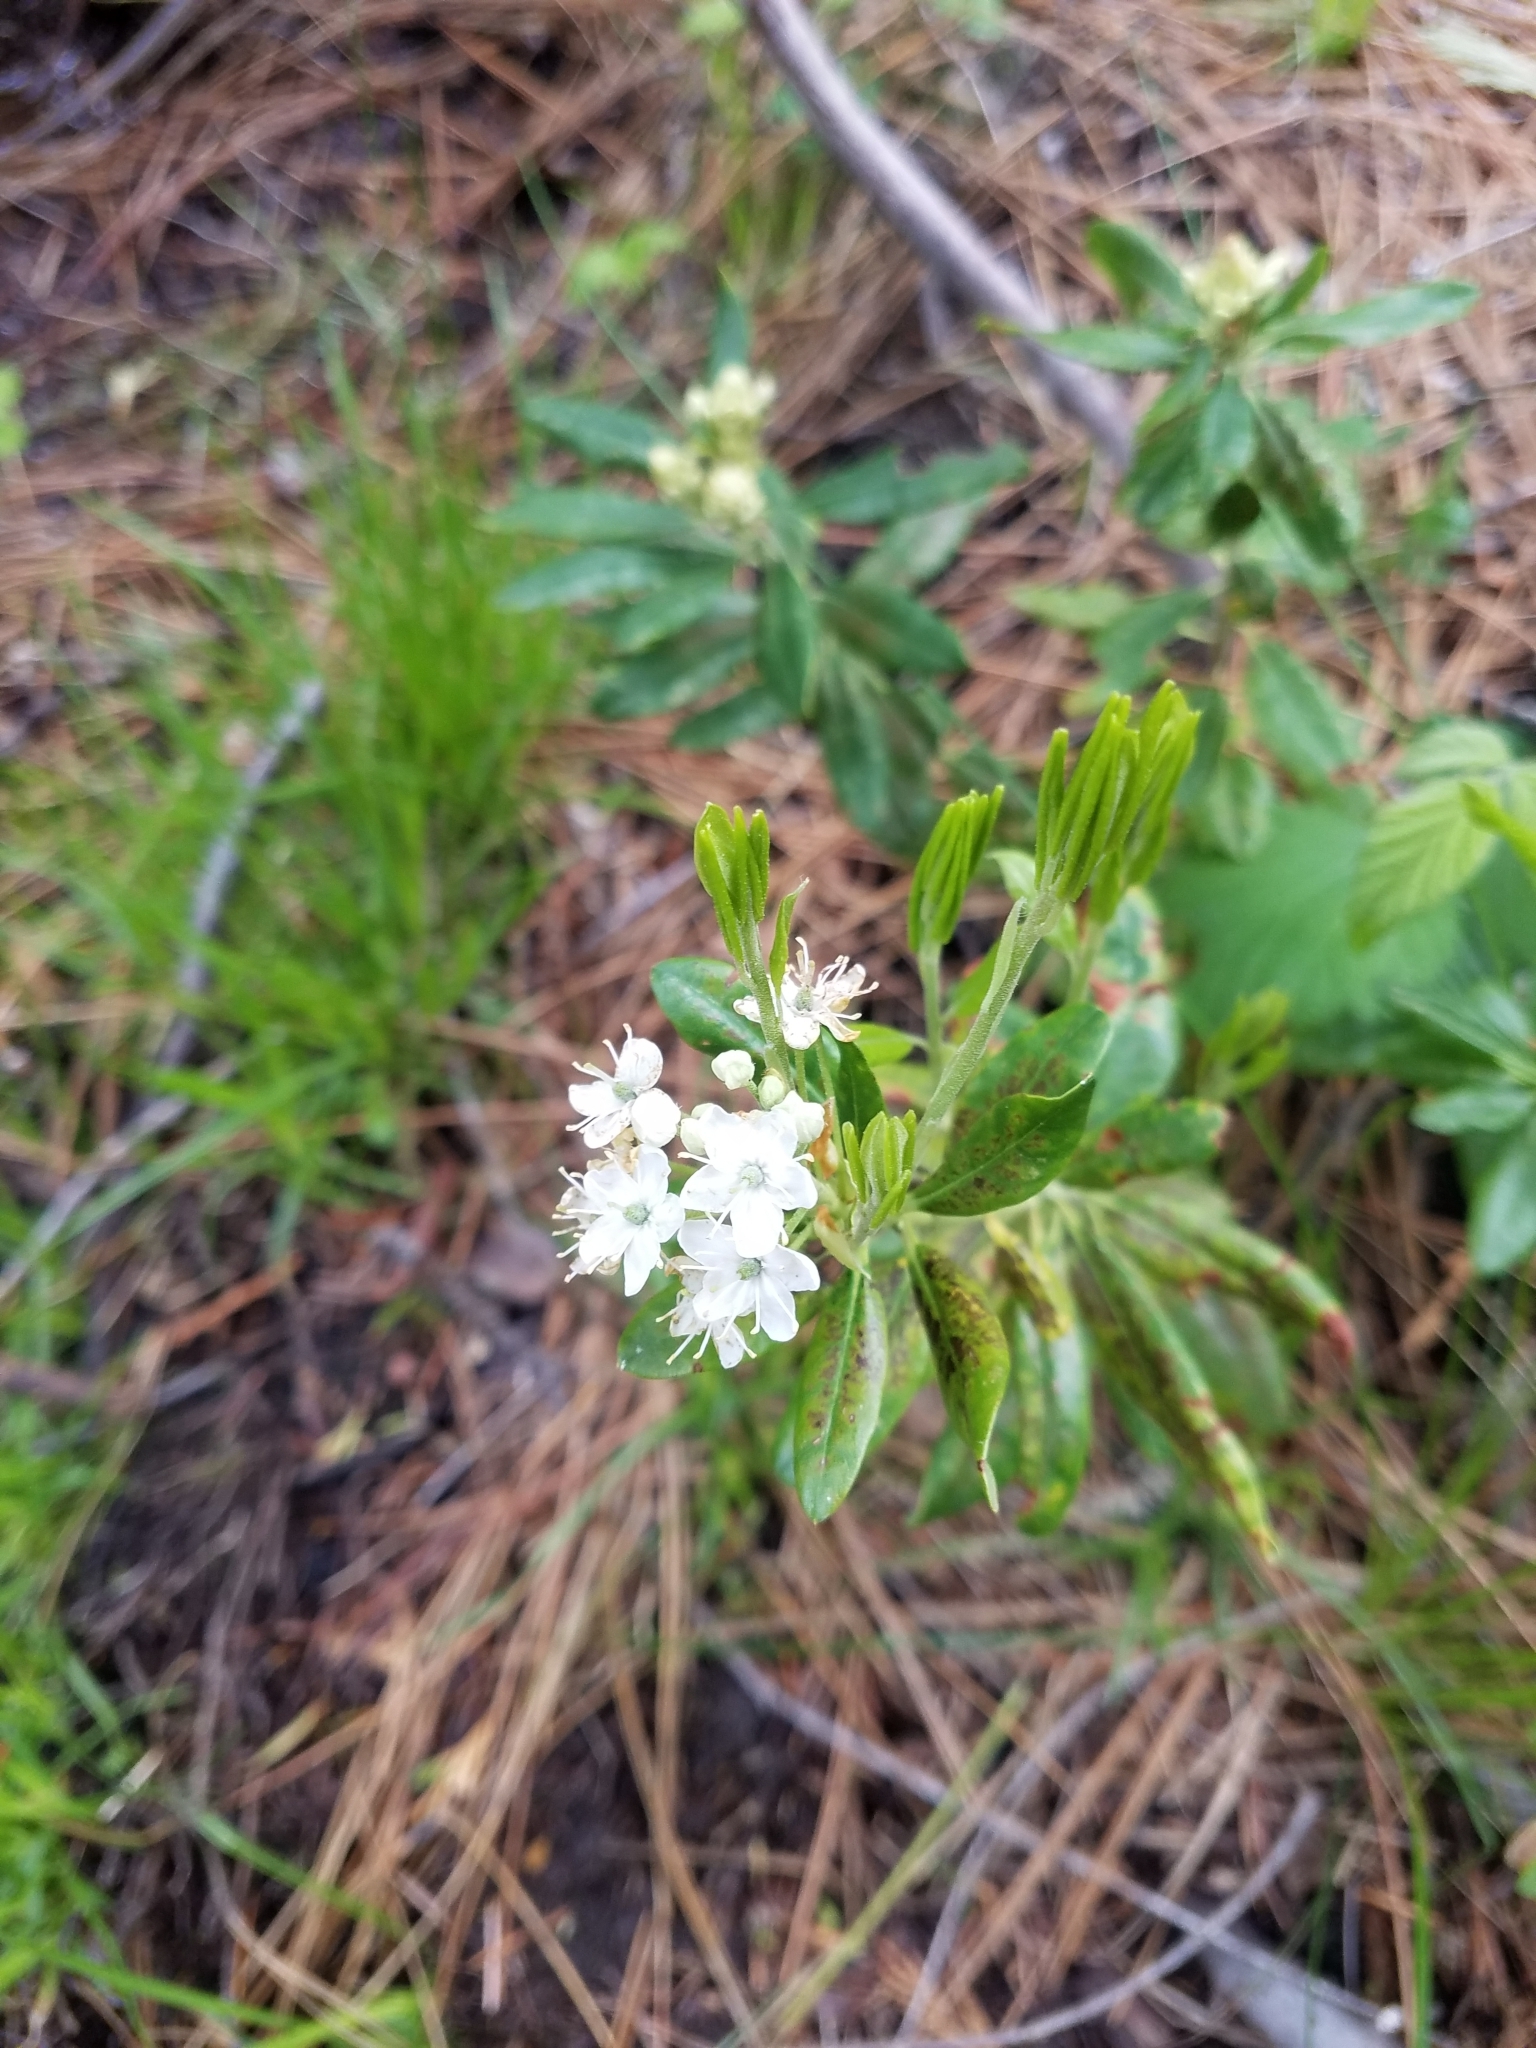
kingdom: Plantae
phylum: Tracheophyta
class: Magnoliopsida
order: Ericales
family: Ericaceae
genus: Rhododendron
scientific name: Rhododendron columbianum
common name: Western labrador tea
